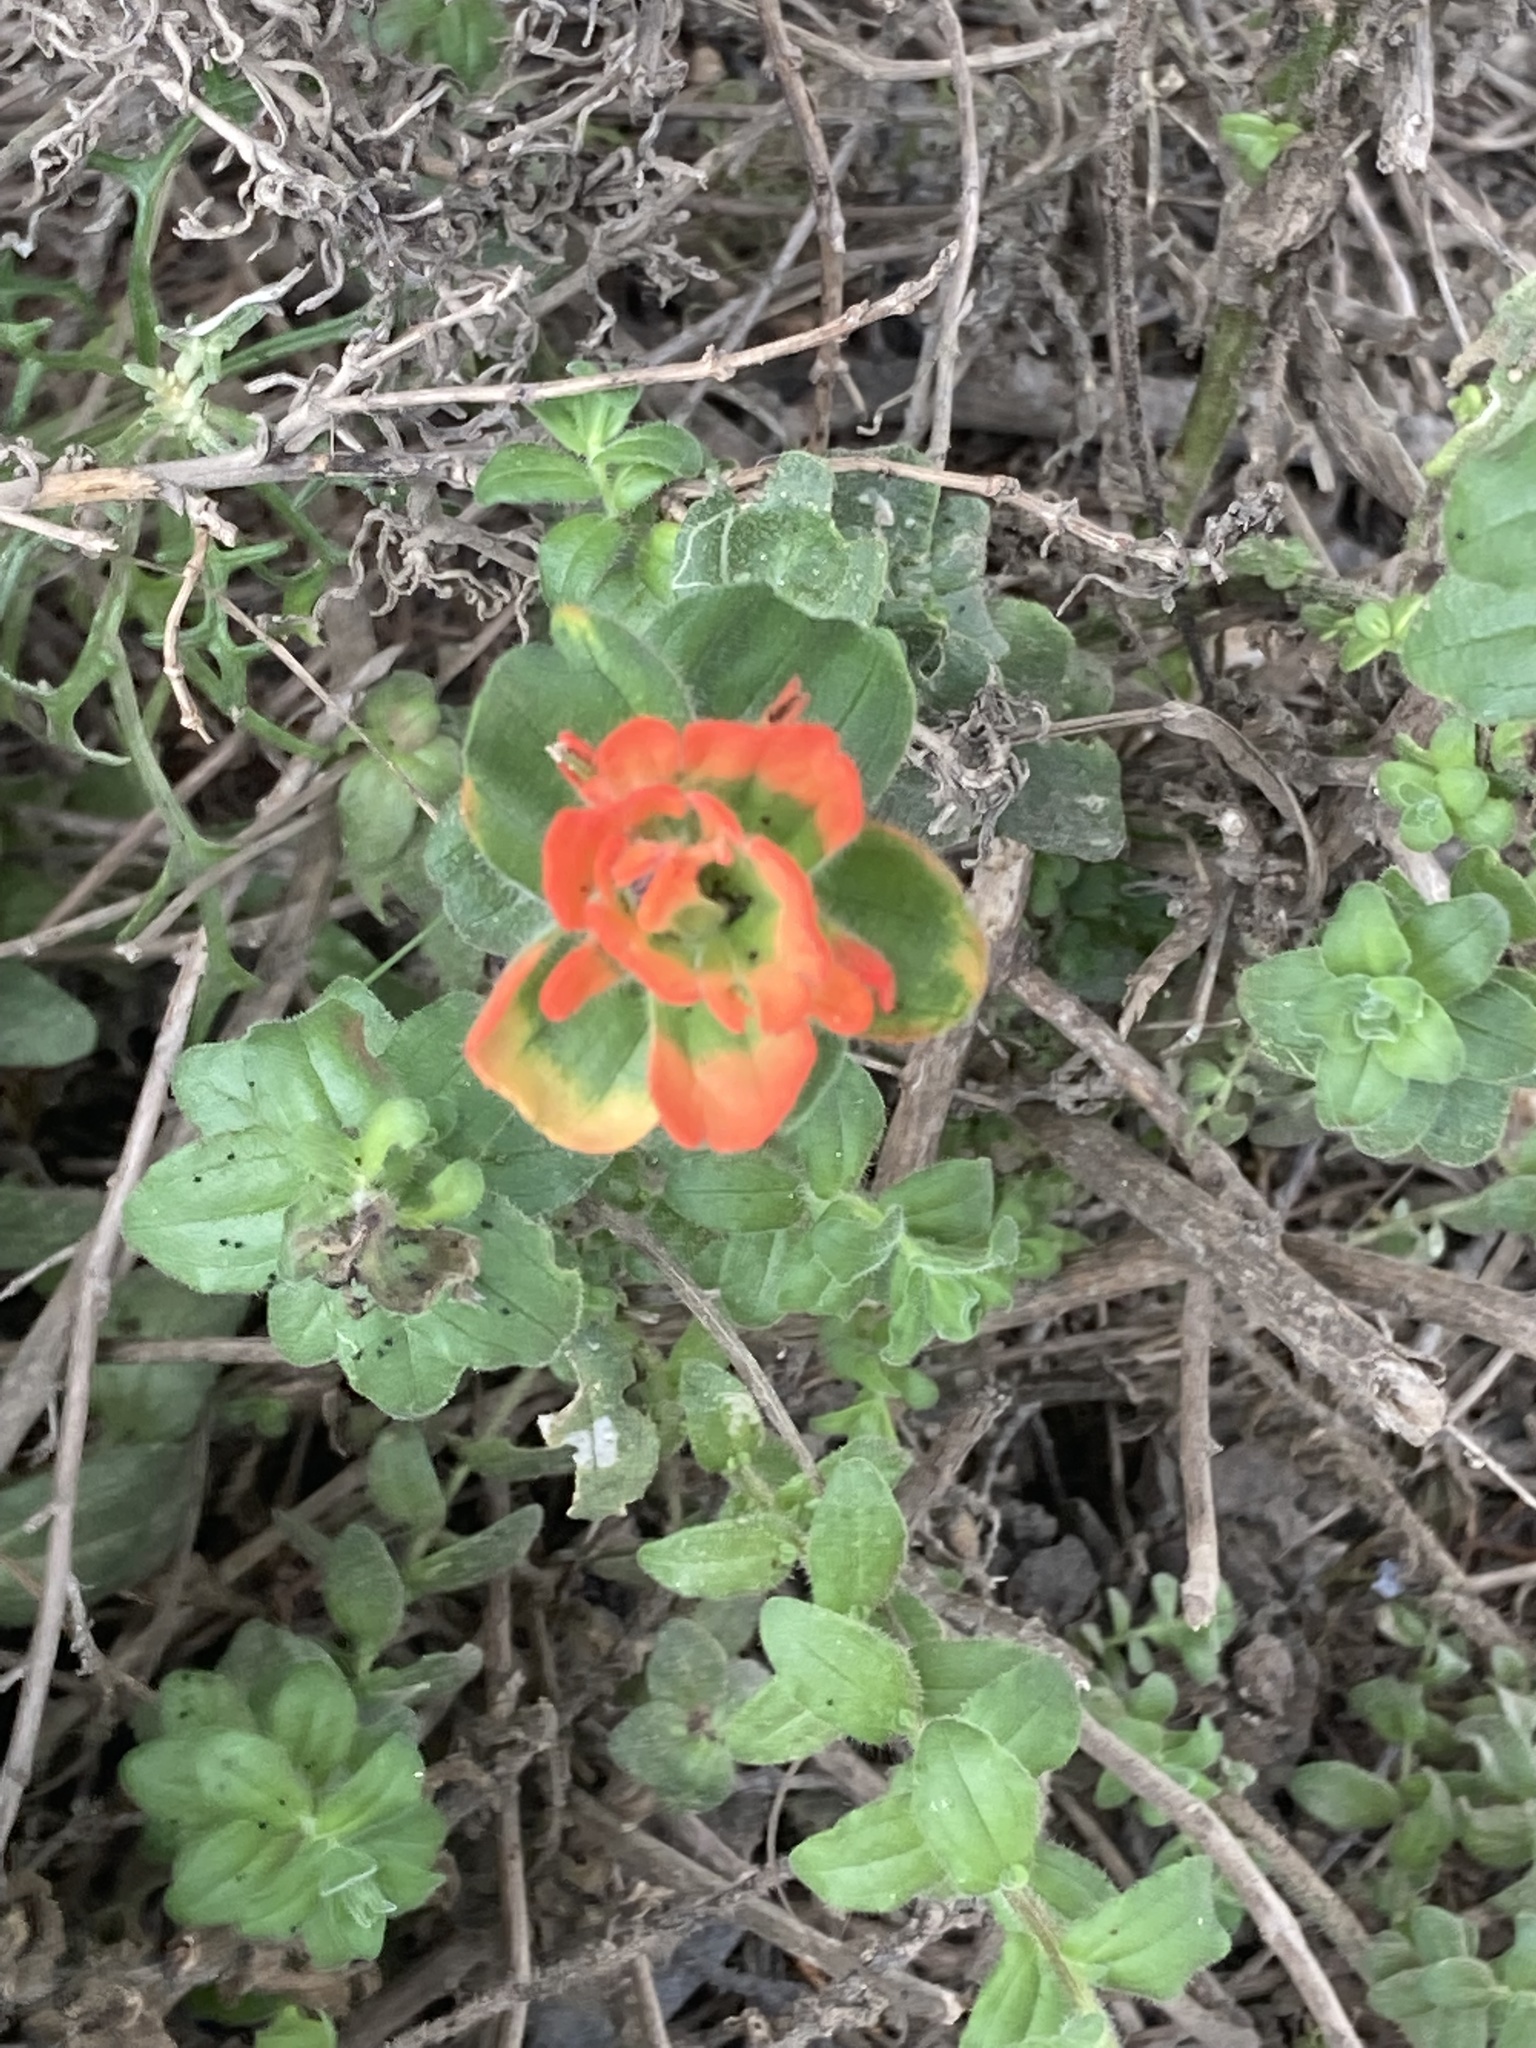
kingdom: Plantae
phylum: Tracheophyta
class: Magnoliopsida
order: Lamiales
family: Orobanchaceae
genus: Castilleja
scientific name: Castilleja latifolia
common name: Monterey indian paintbrush
